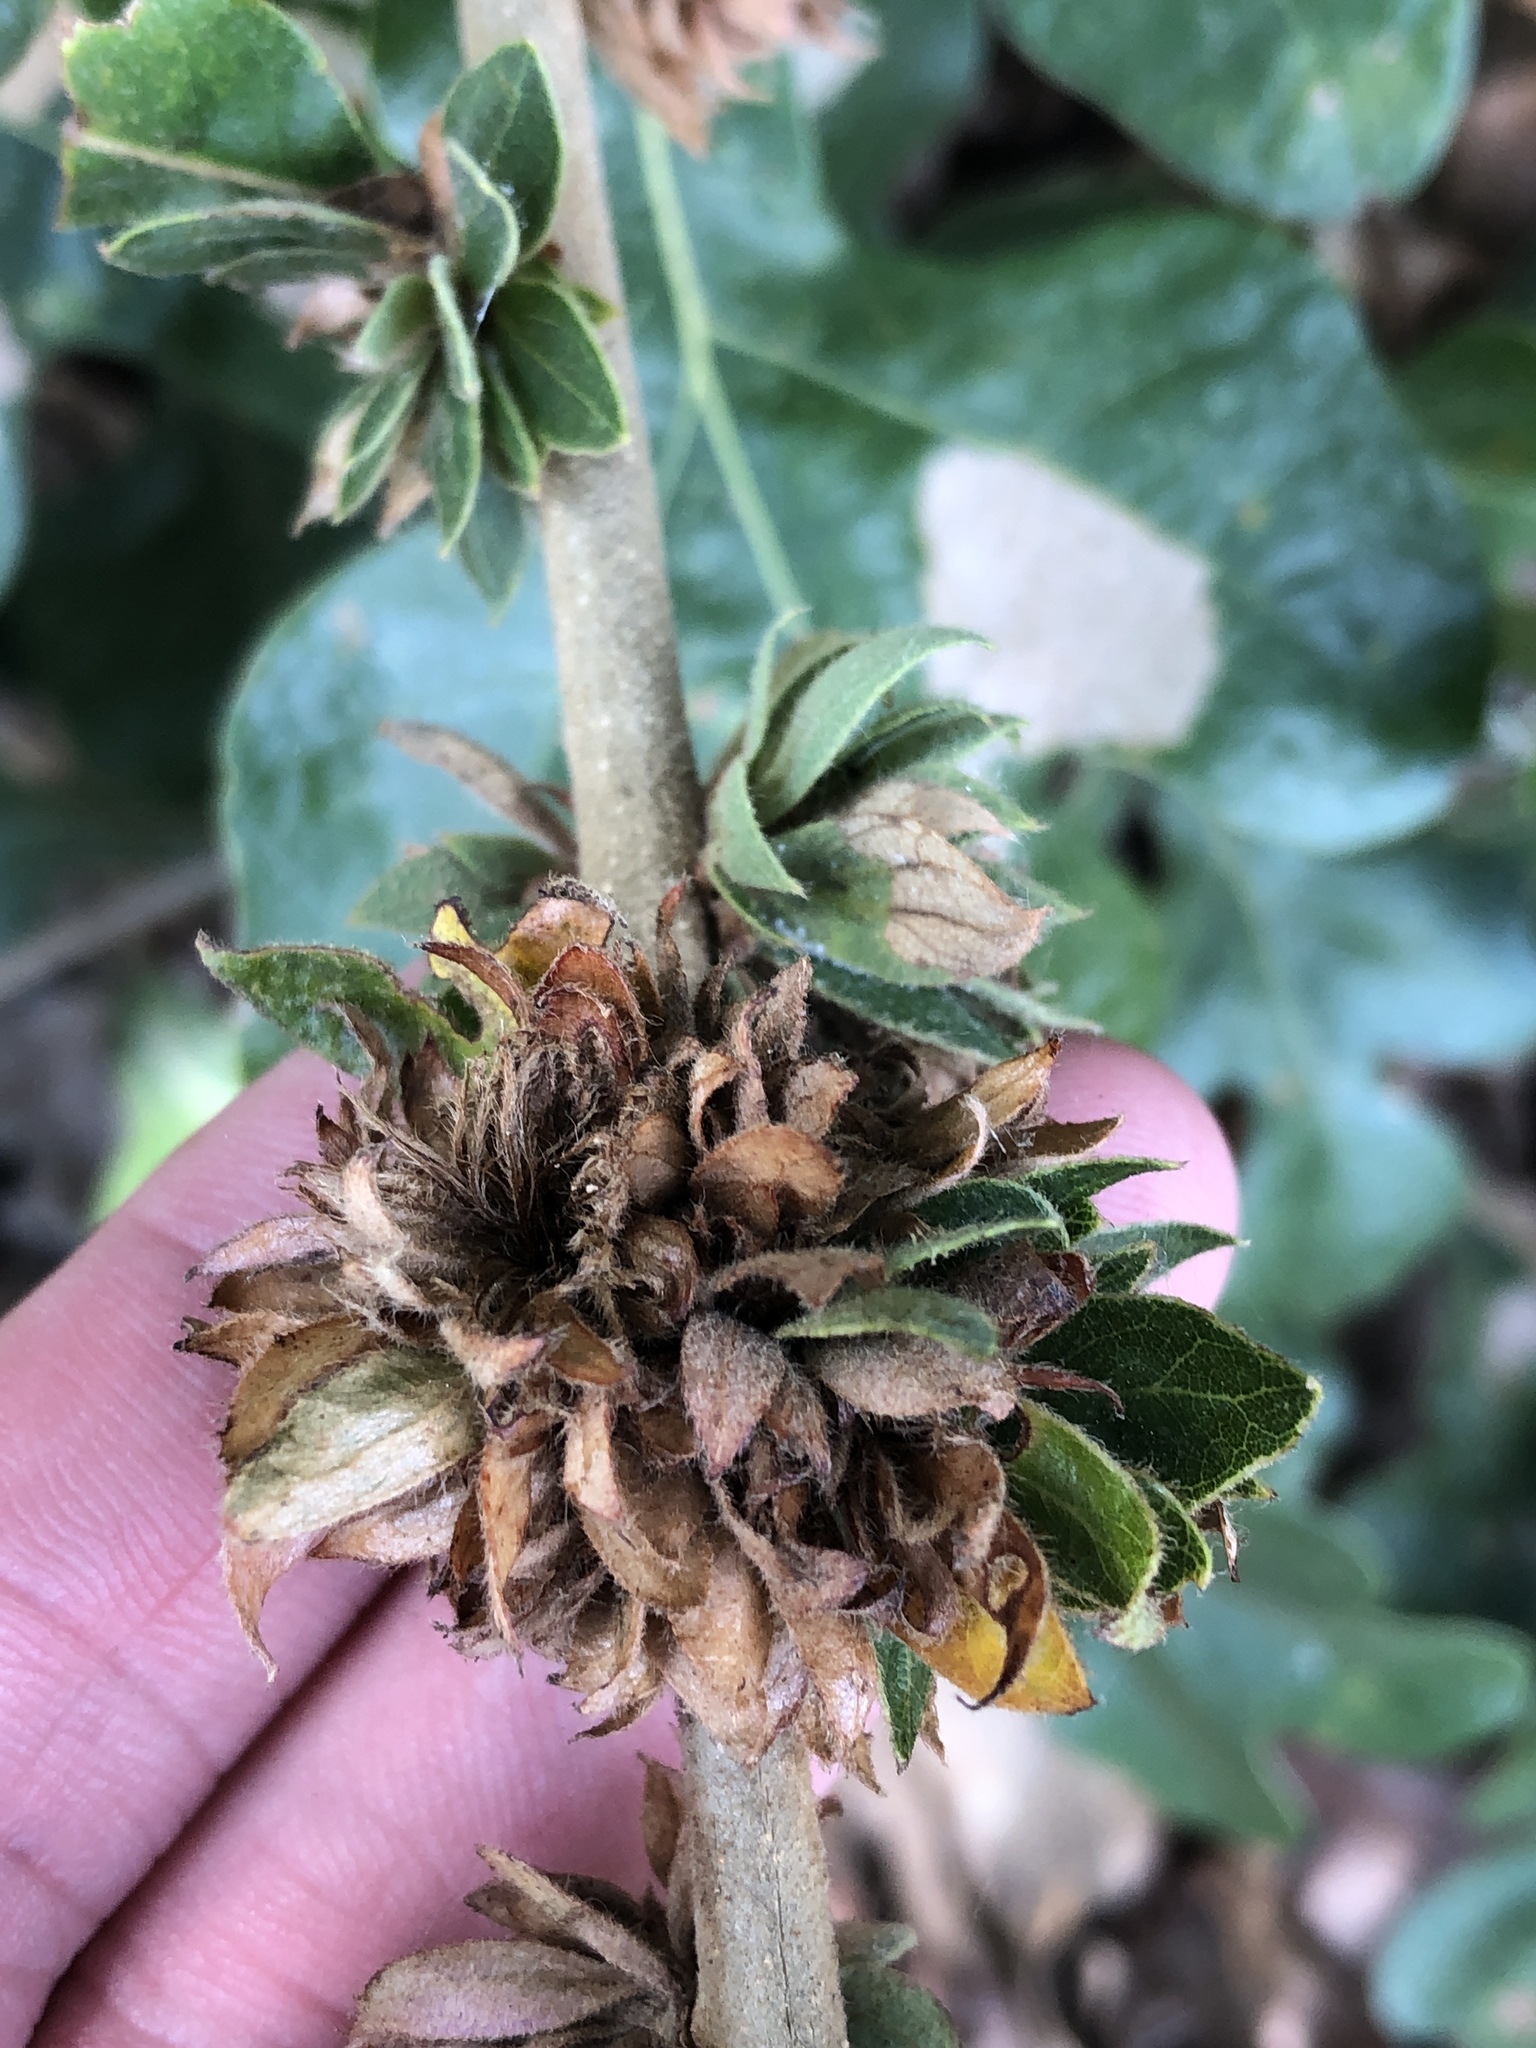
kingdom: Animalia
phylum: Arthropoda
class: Insecta
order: Hymenoptera
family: Cynipidae
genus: Andricus
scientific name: Andricus
